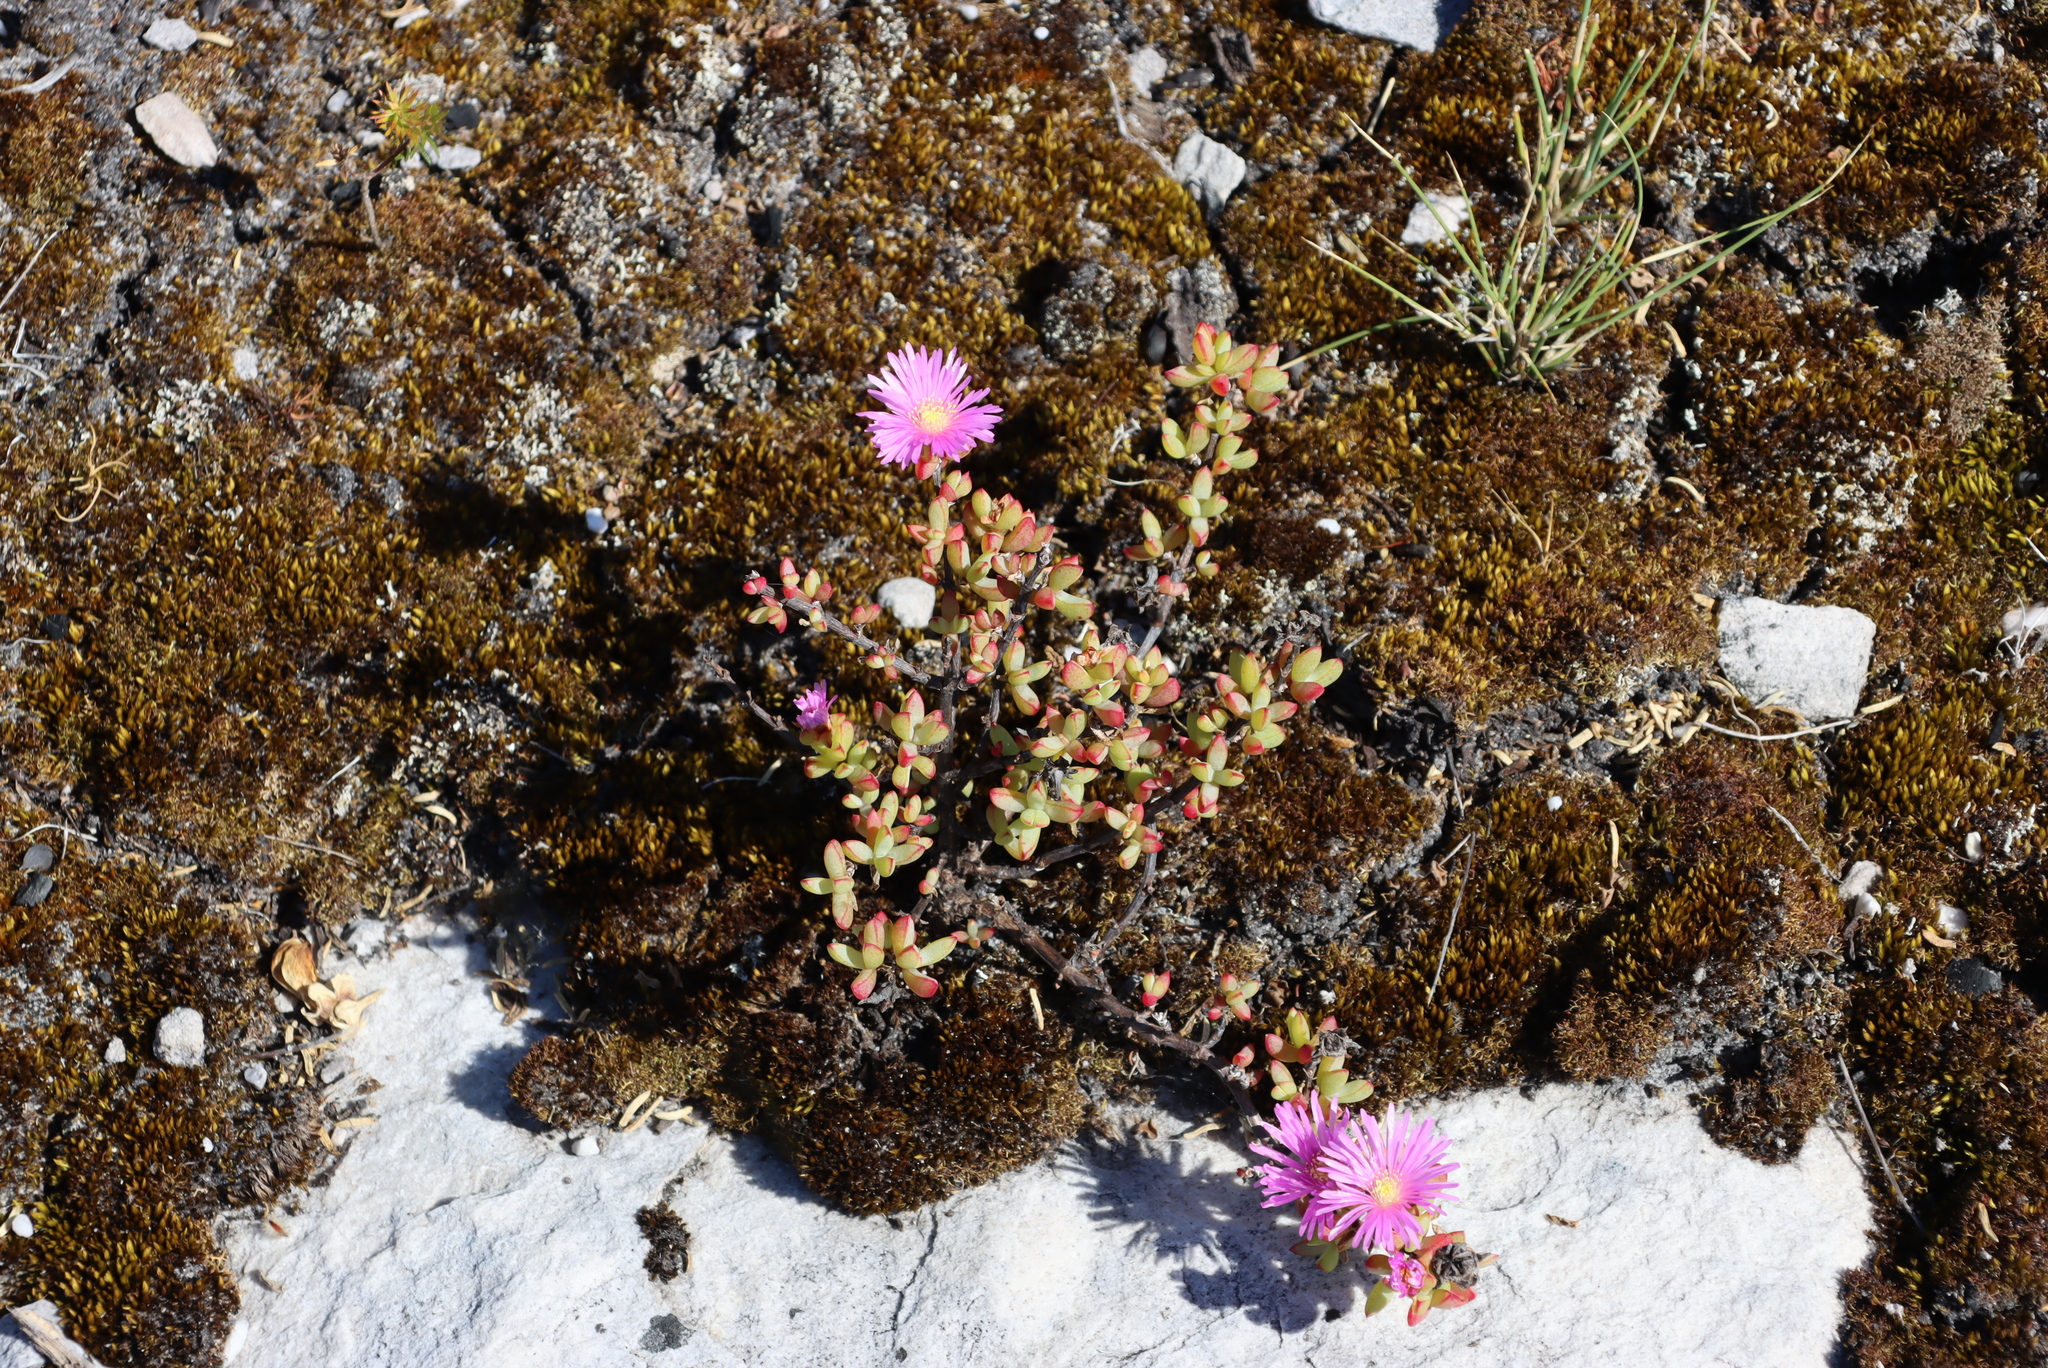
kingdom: Plantae
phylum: Tracheophyta
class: Magnoliopsida
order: Caryophyllales
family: Aizoaceae
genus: Oscularia
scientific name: Oscularia falciformis
